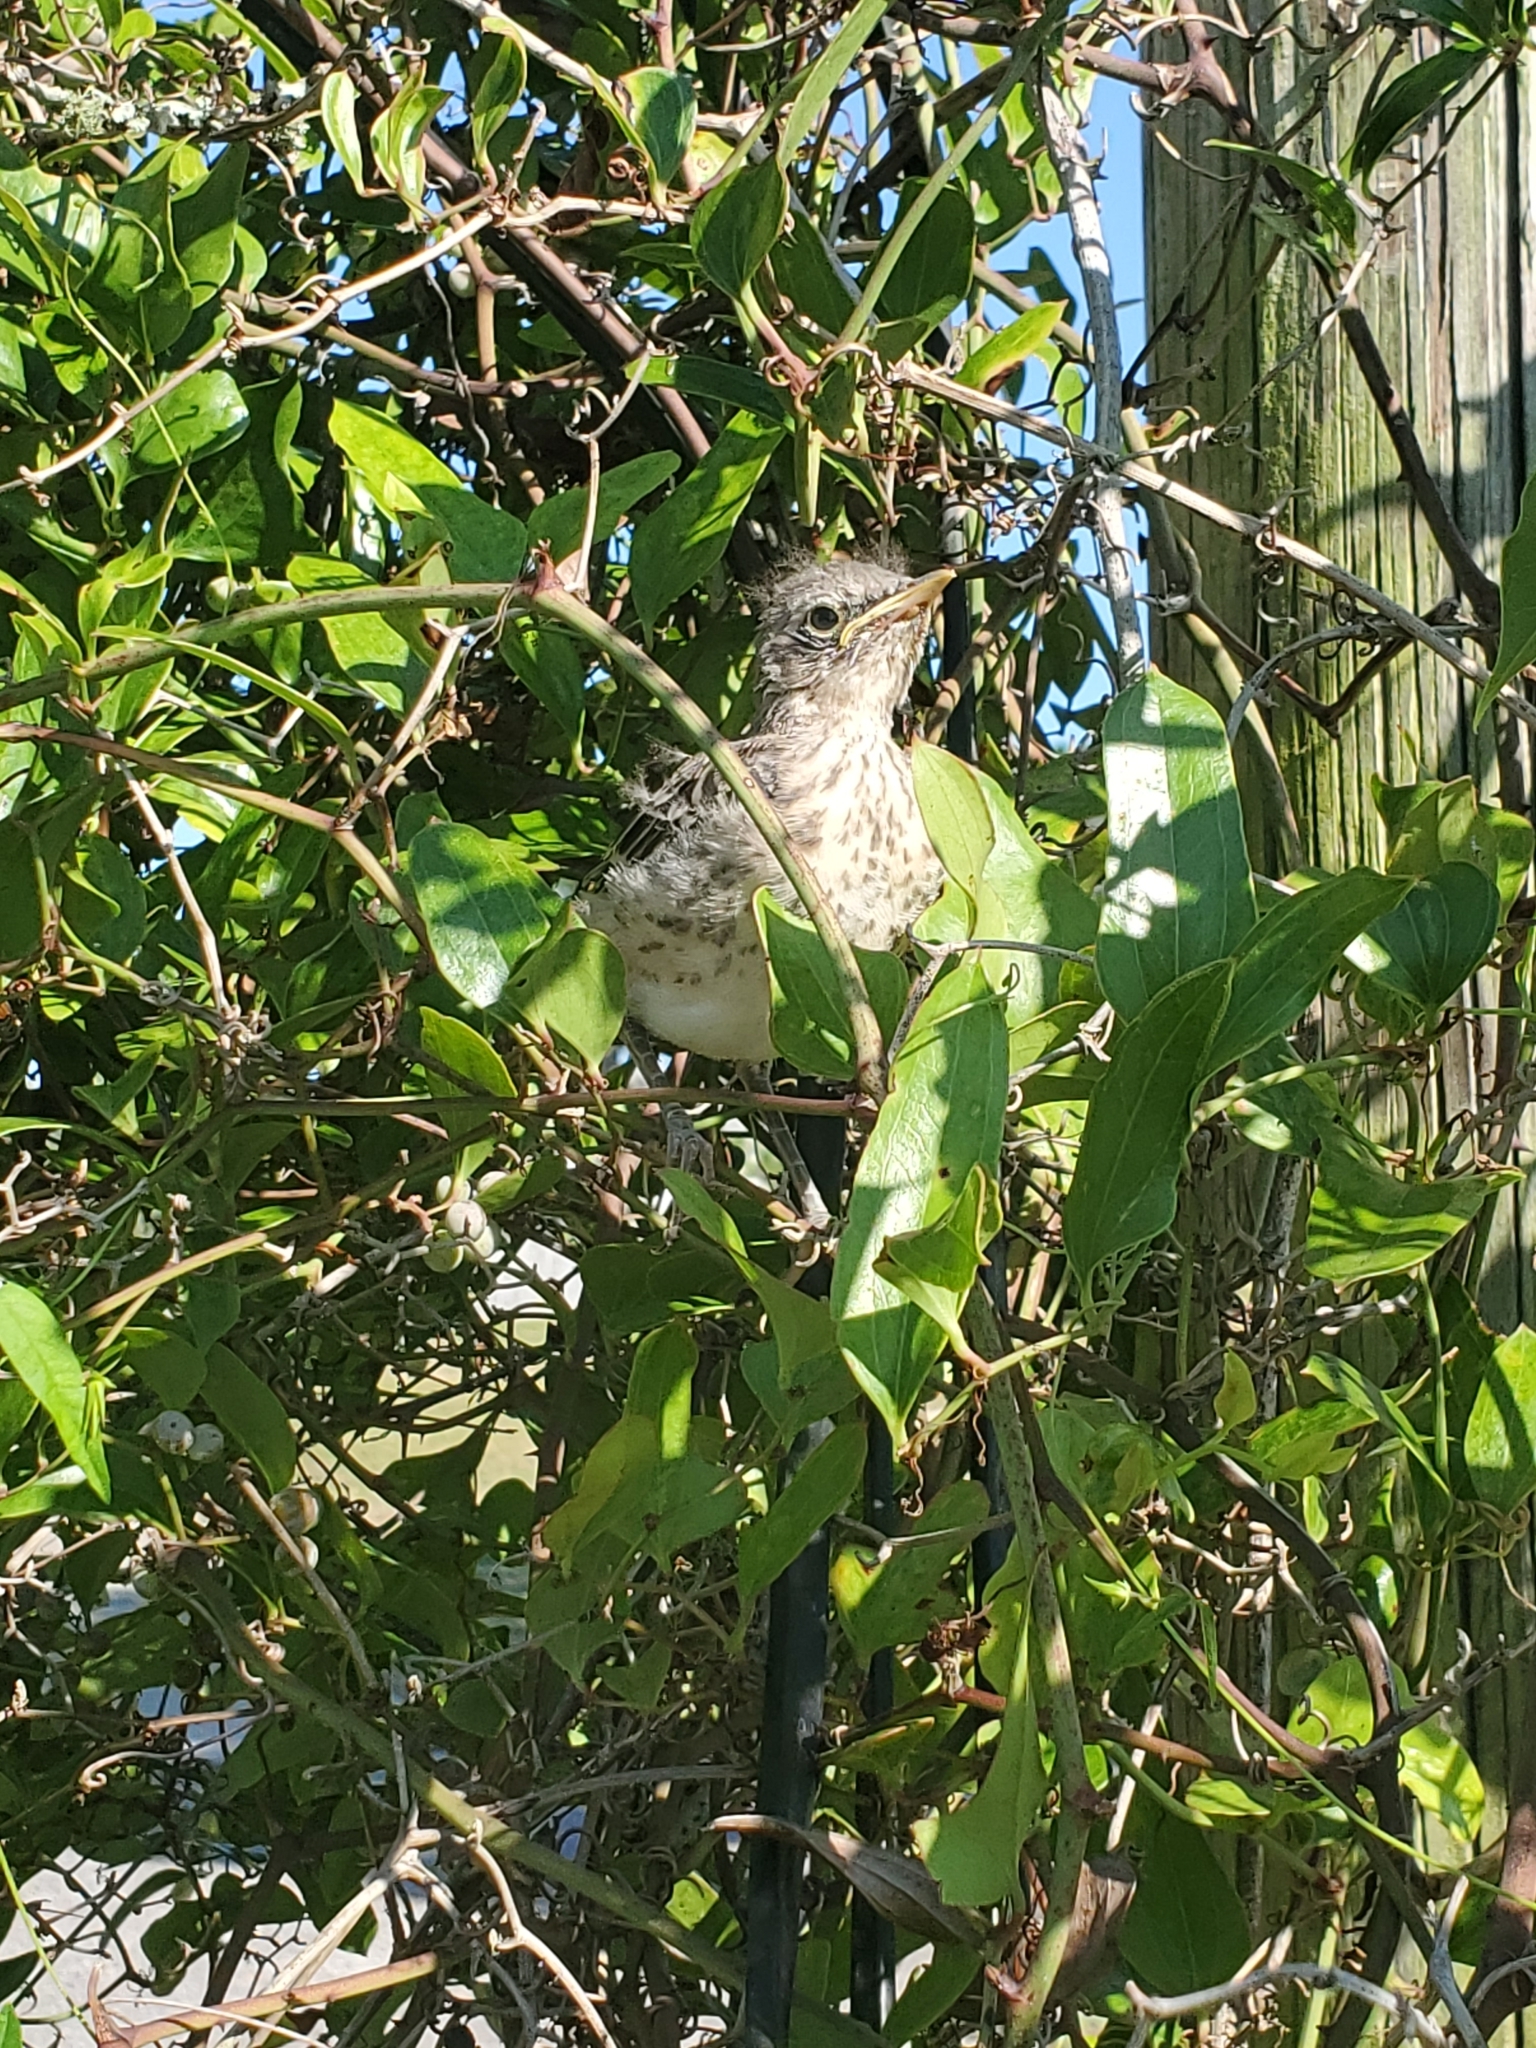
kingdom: Animalia
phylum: Chordata
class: Aves
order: Passeriformes
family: Mimidae
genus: Mimus
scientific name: Mimus polyglottos
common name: Northern mockingbird
